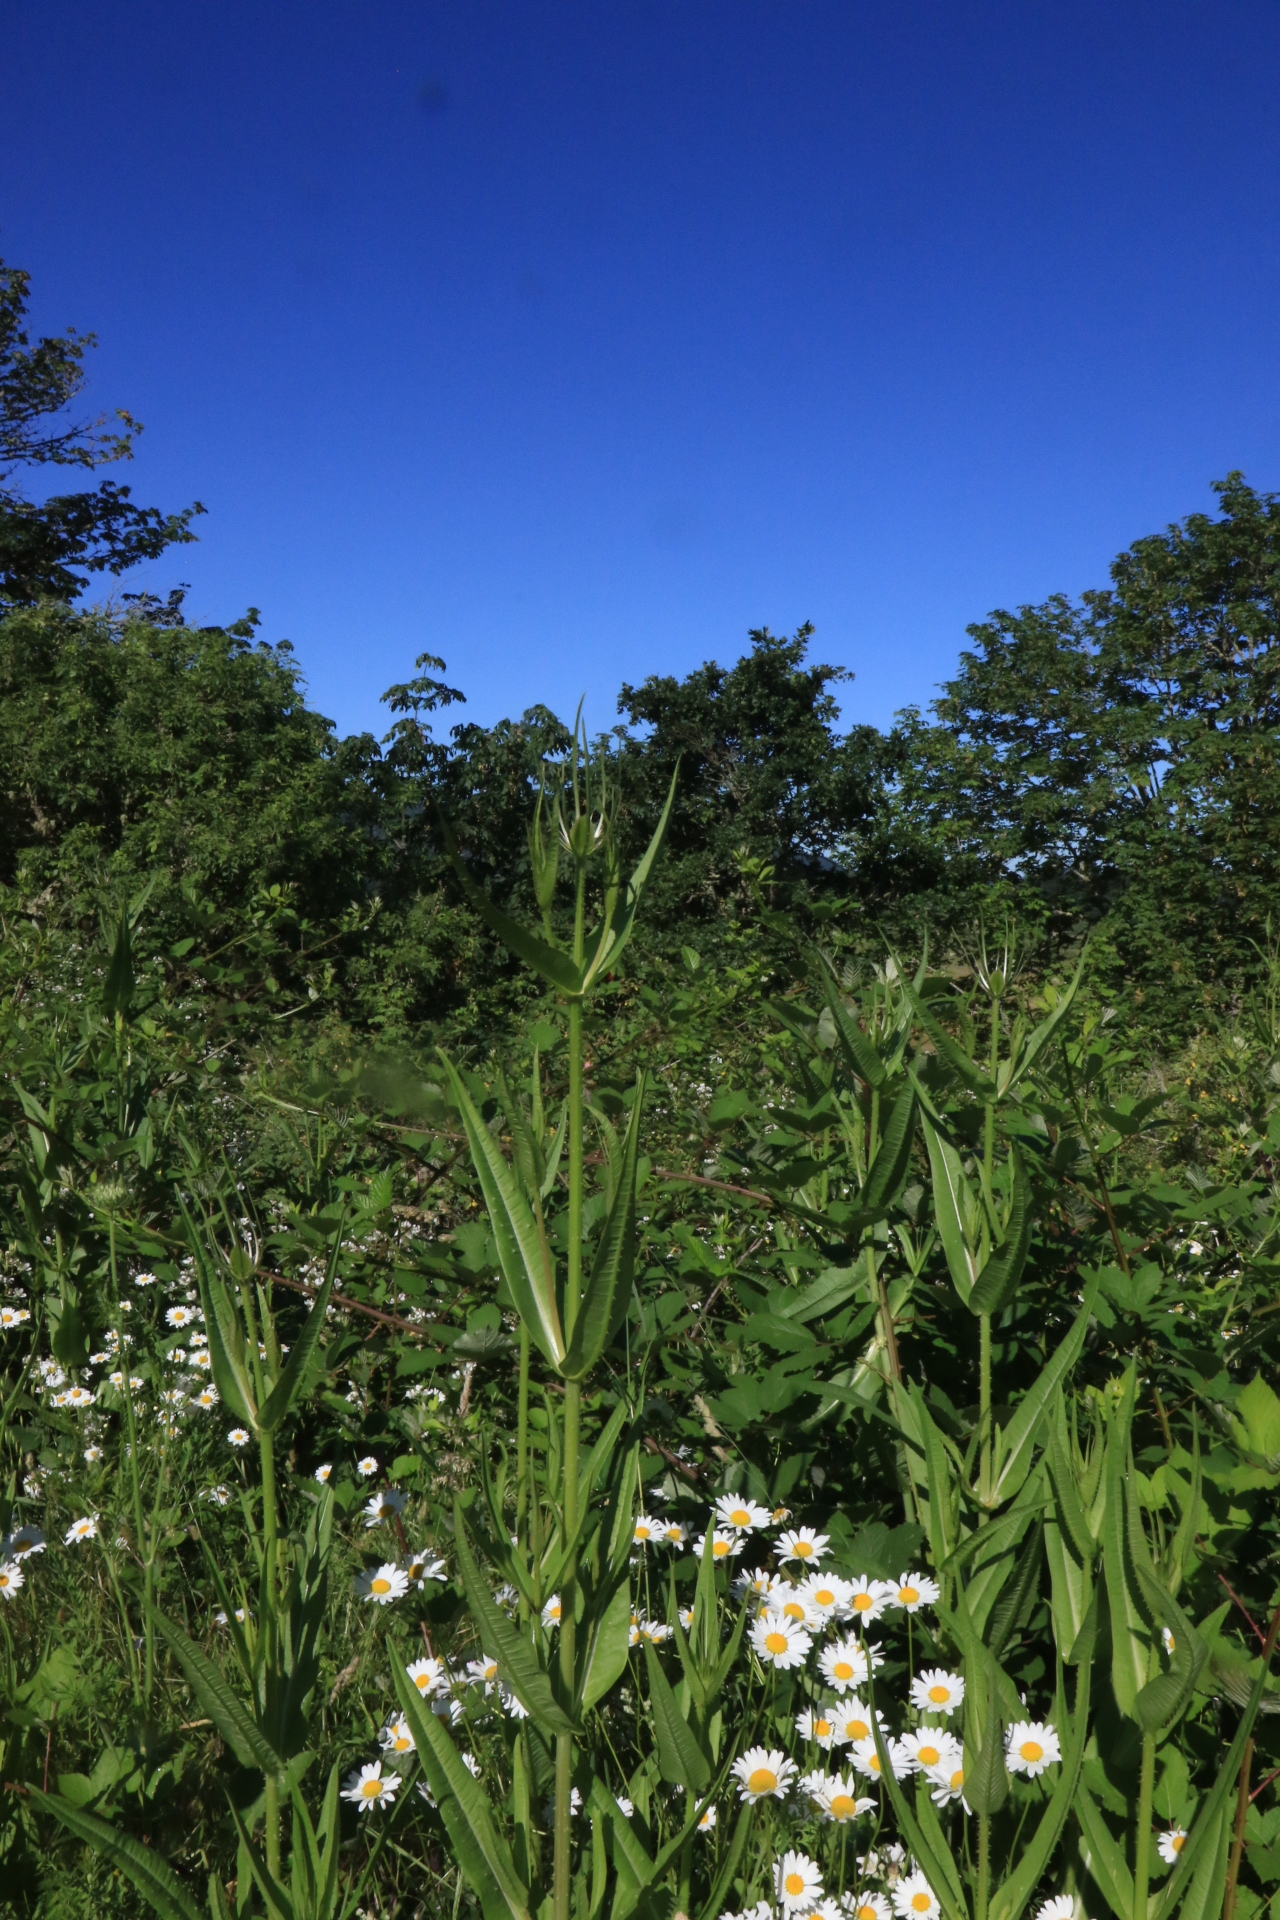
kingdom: Plantae
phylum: Tracheophyta
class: Magnoliopsida
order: Dipsacales
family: Caprifoliaceae
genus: Dipsacus
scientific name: Dipsacus fullonum
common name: Teasel
